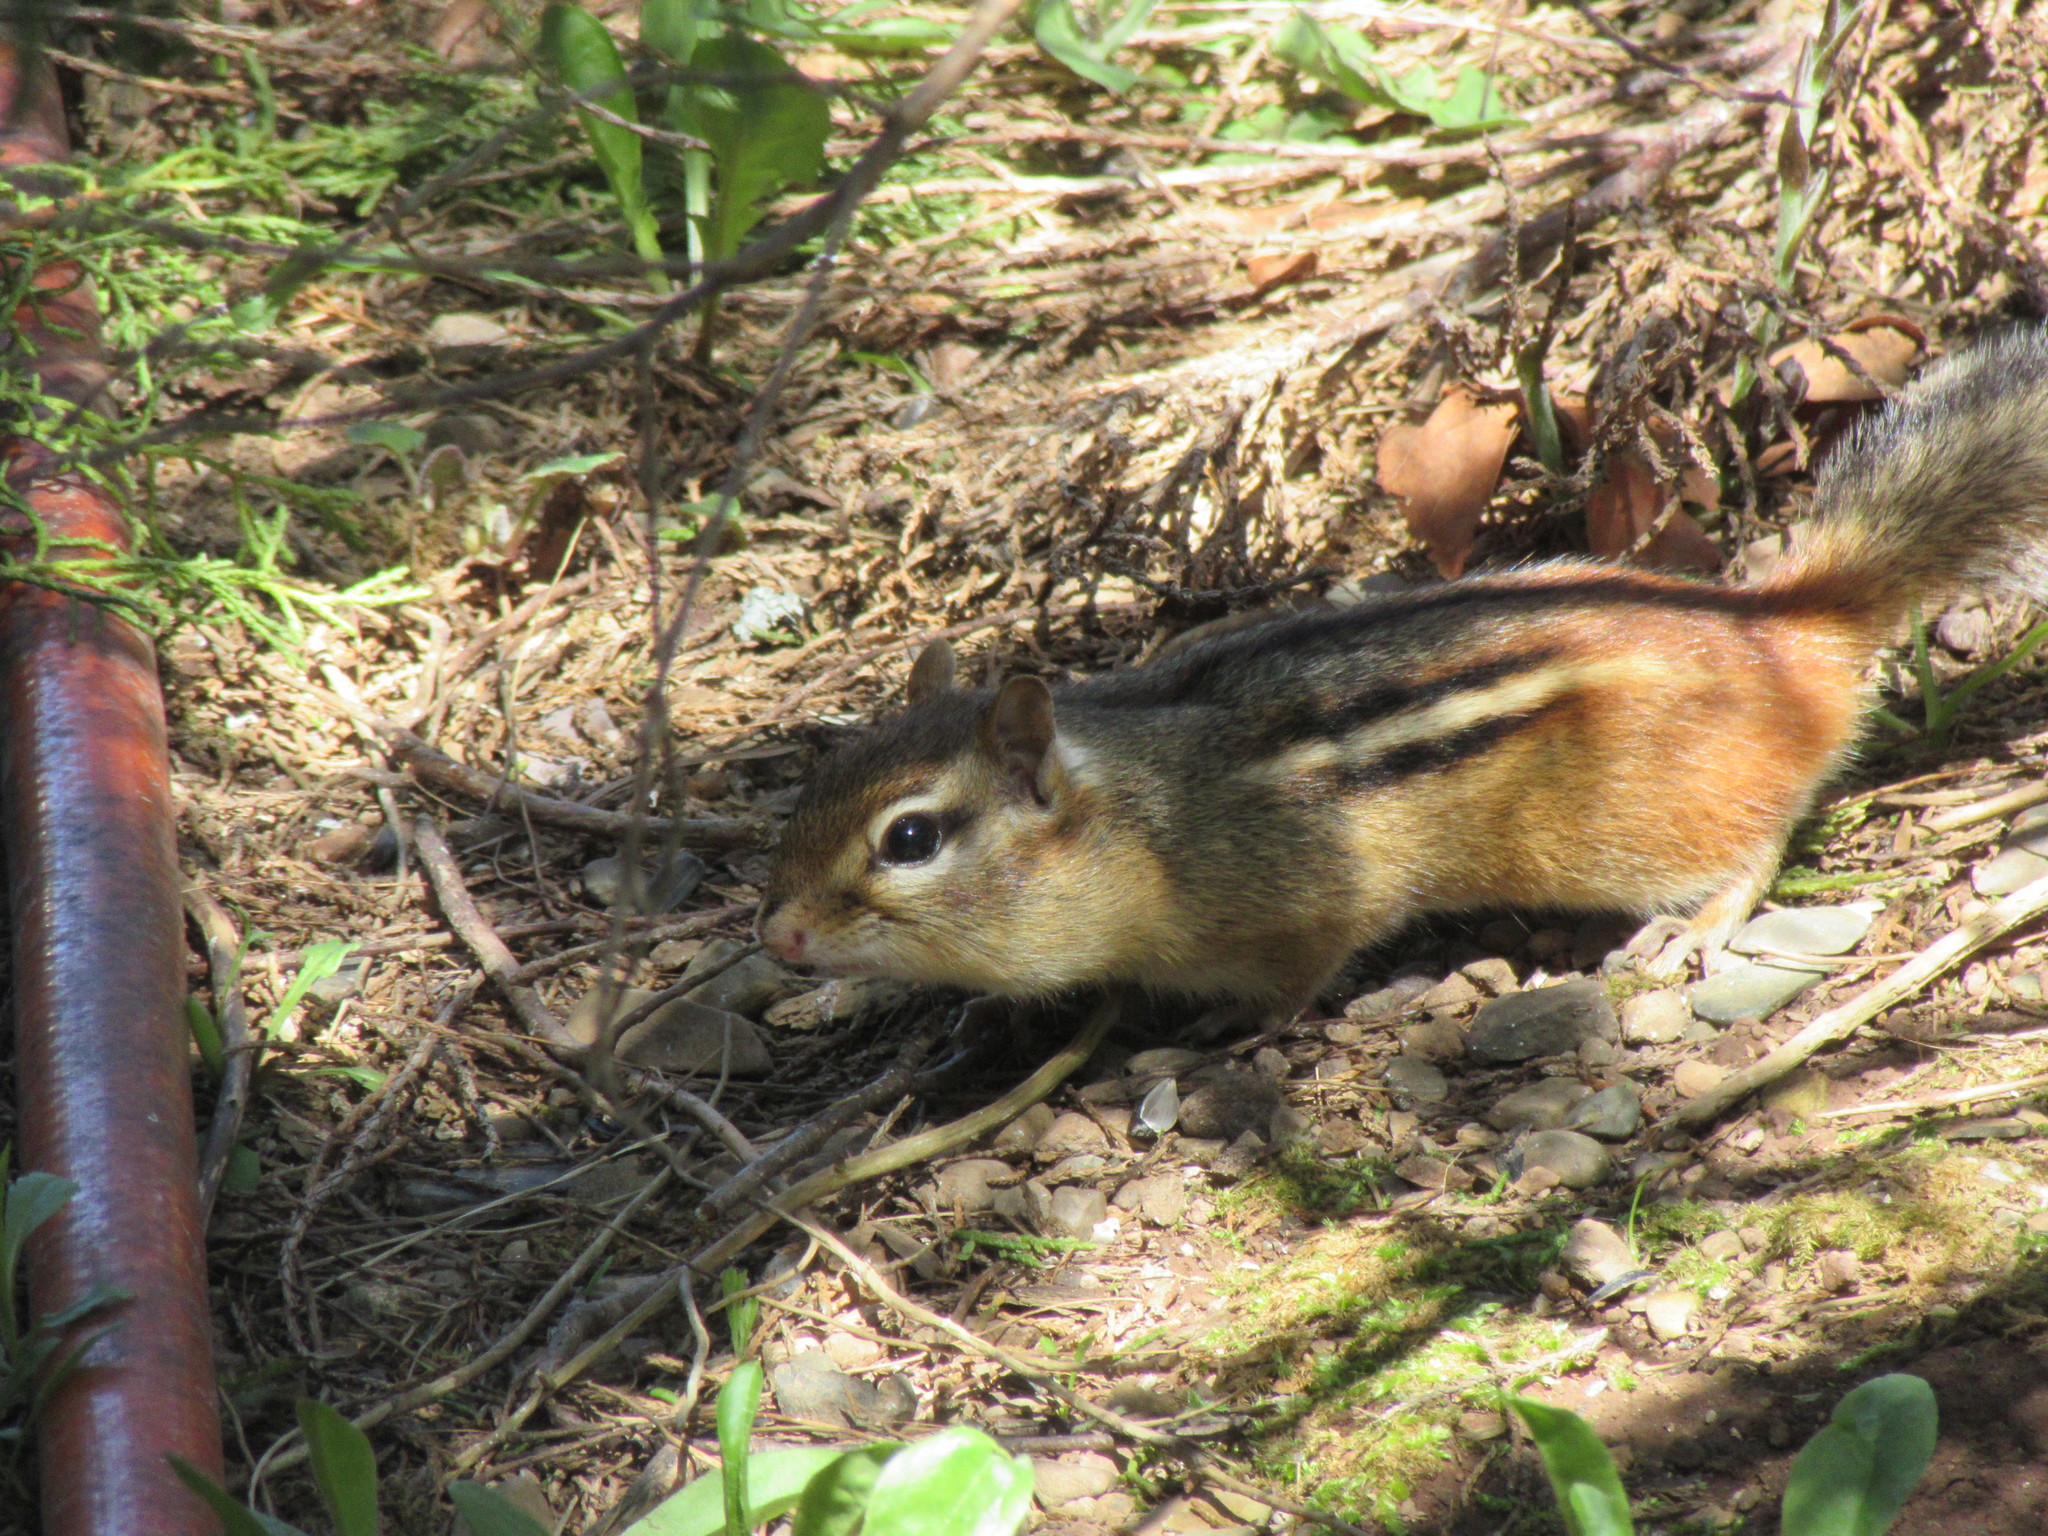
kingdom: Animalia
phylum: Chordata
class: Mammalia
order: Rodentia
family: Sciuridae
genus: Tamias
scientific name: Tamias striatus
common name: Eastern chipmunk
